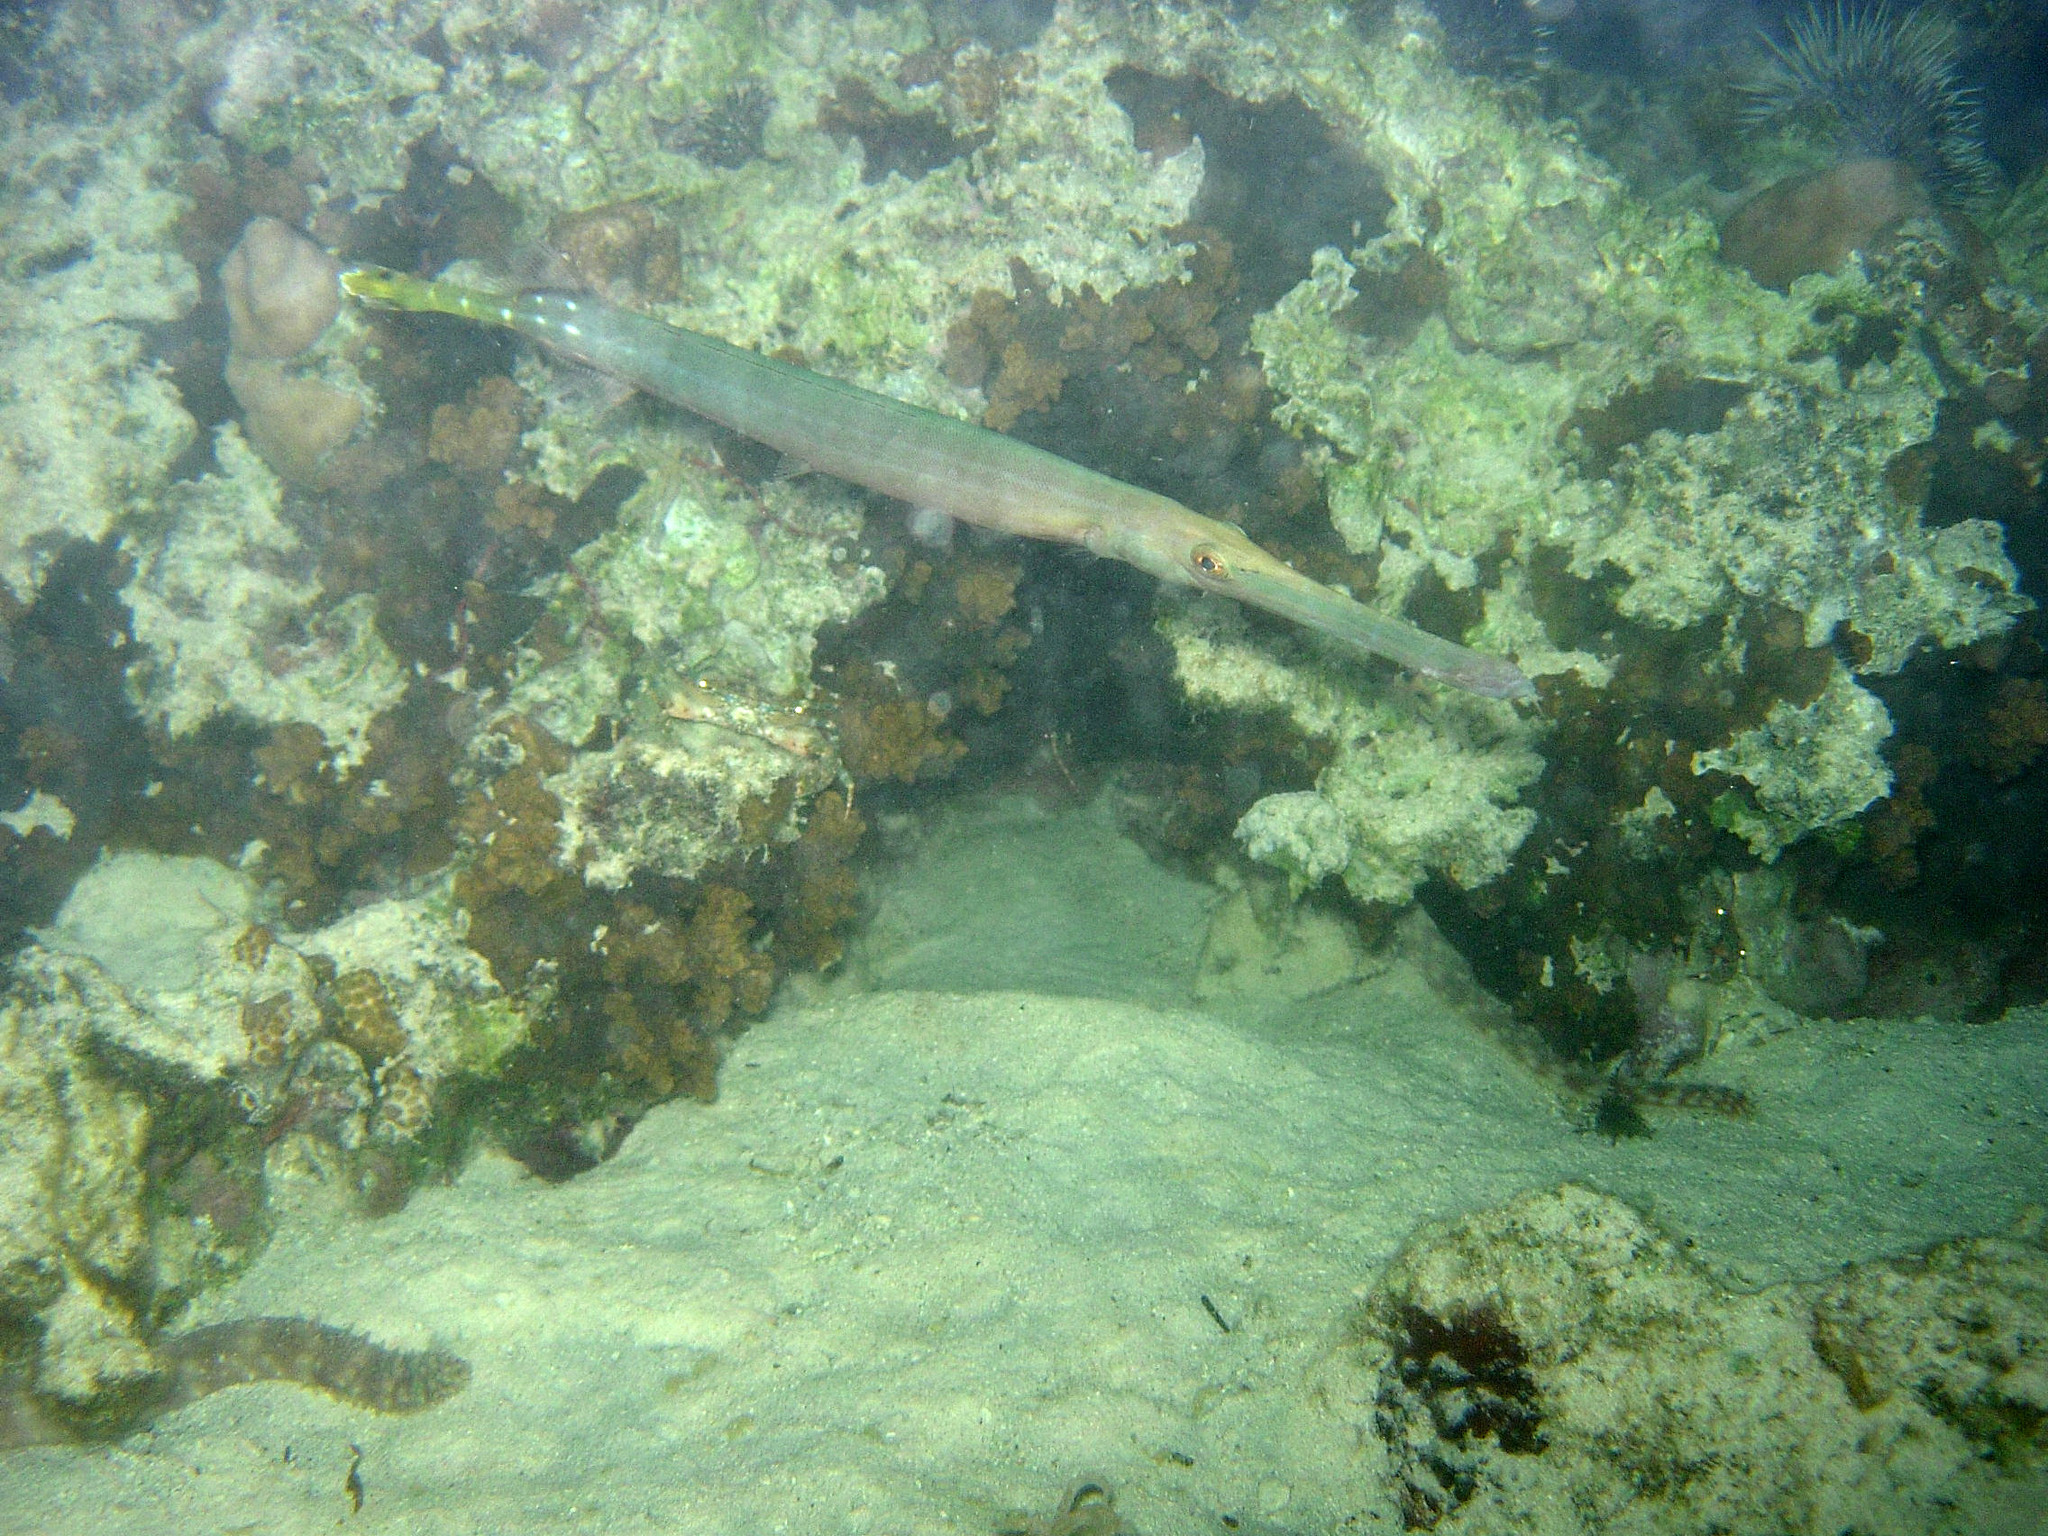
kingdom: Animalia
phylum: Chordata
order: Syngnathiformes
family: Aulostomidae
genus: Aulostomus
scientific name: Aulostomus chinensis
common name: Chinese trumpetfish
